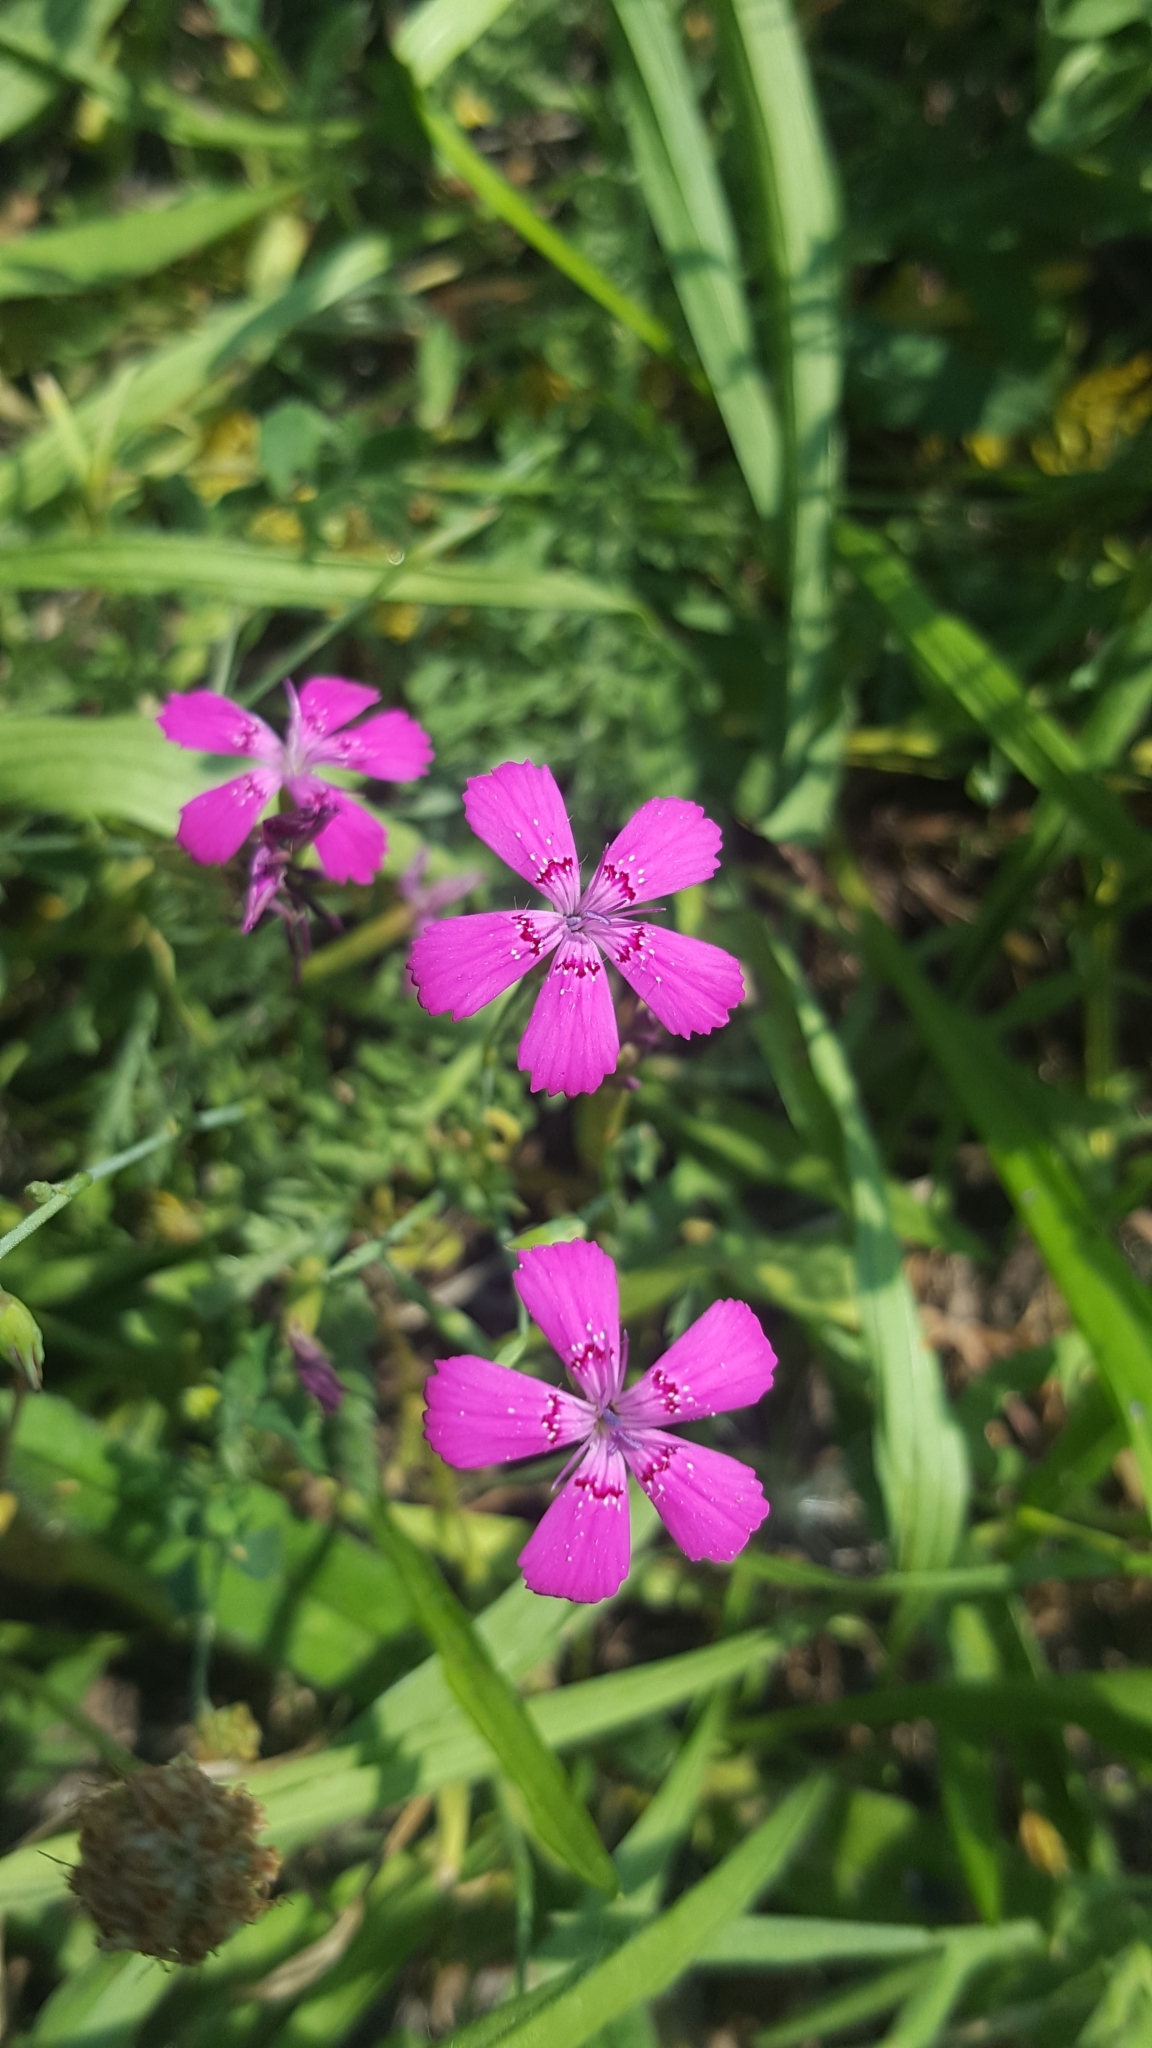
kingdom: Plantae
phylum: Tracheophyta
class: Magnoliopsida
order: Caryophyllales
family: Caryophyllaceae
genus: Dianthus
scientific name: Dianthus deltoides
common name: Maiden pink
